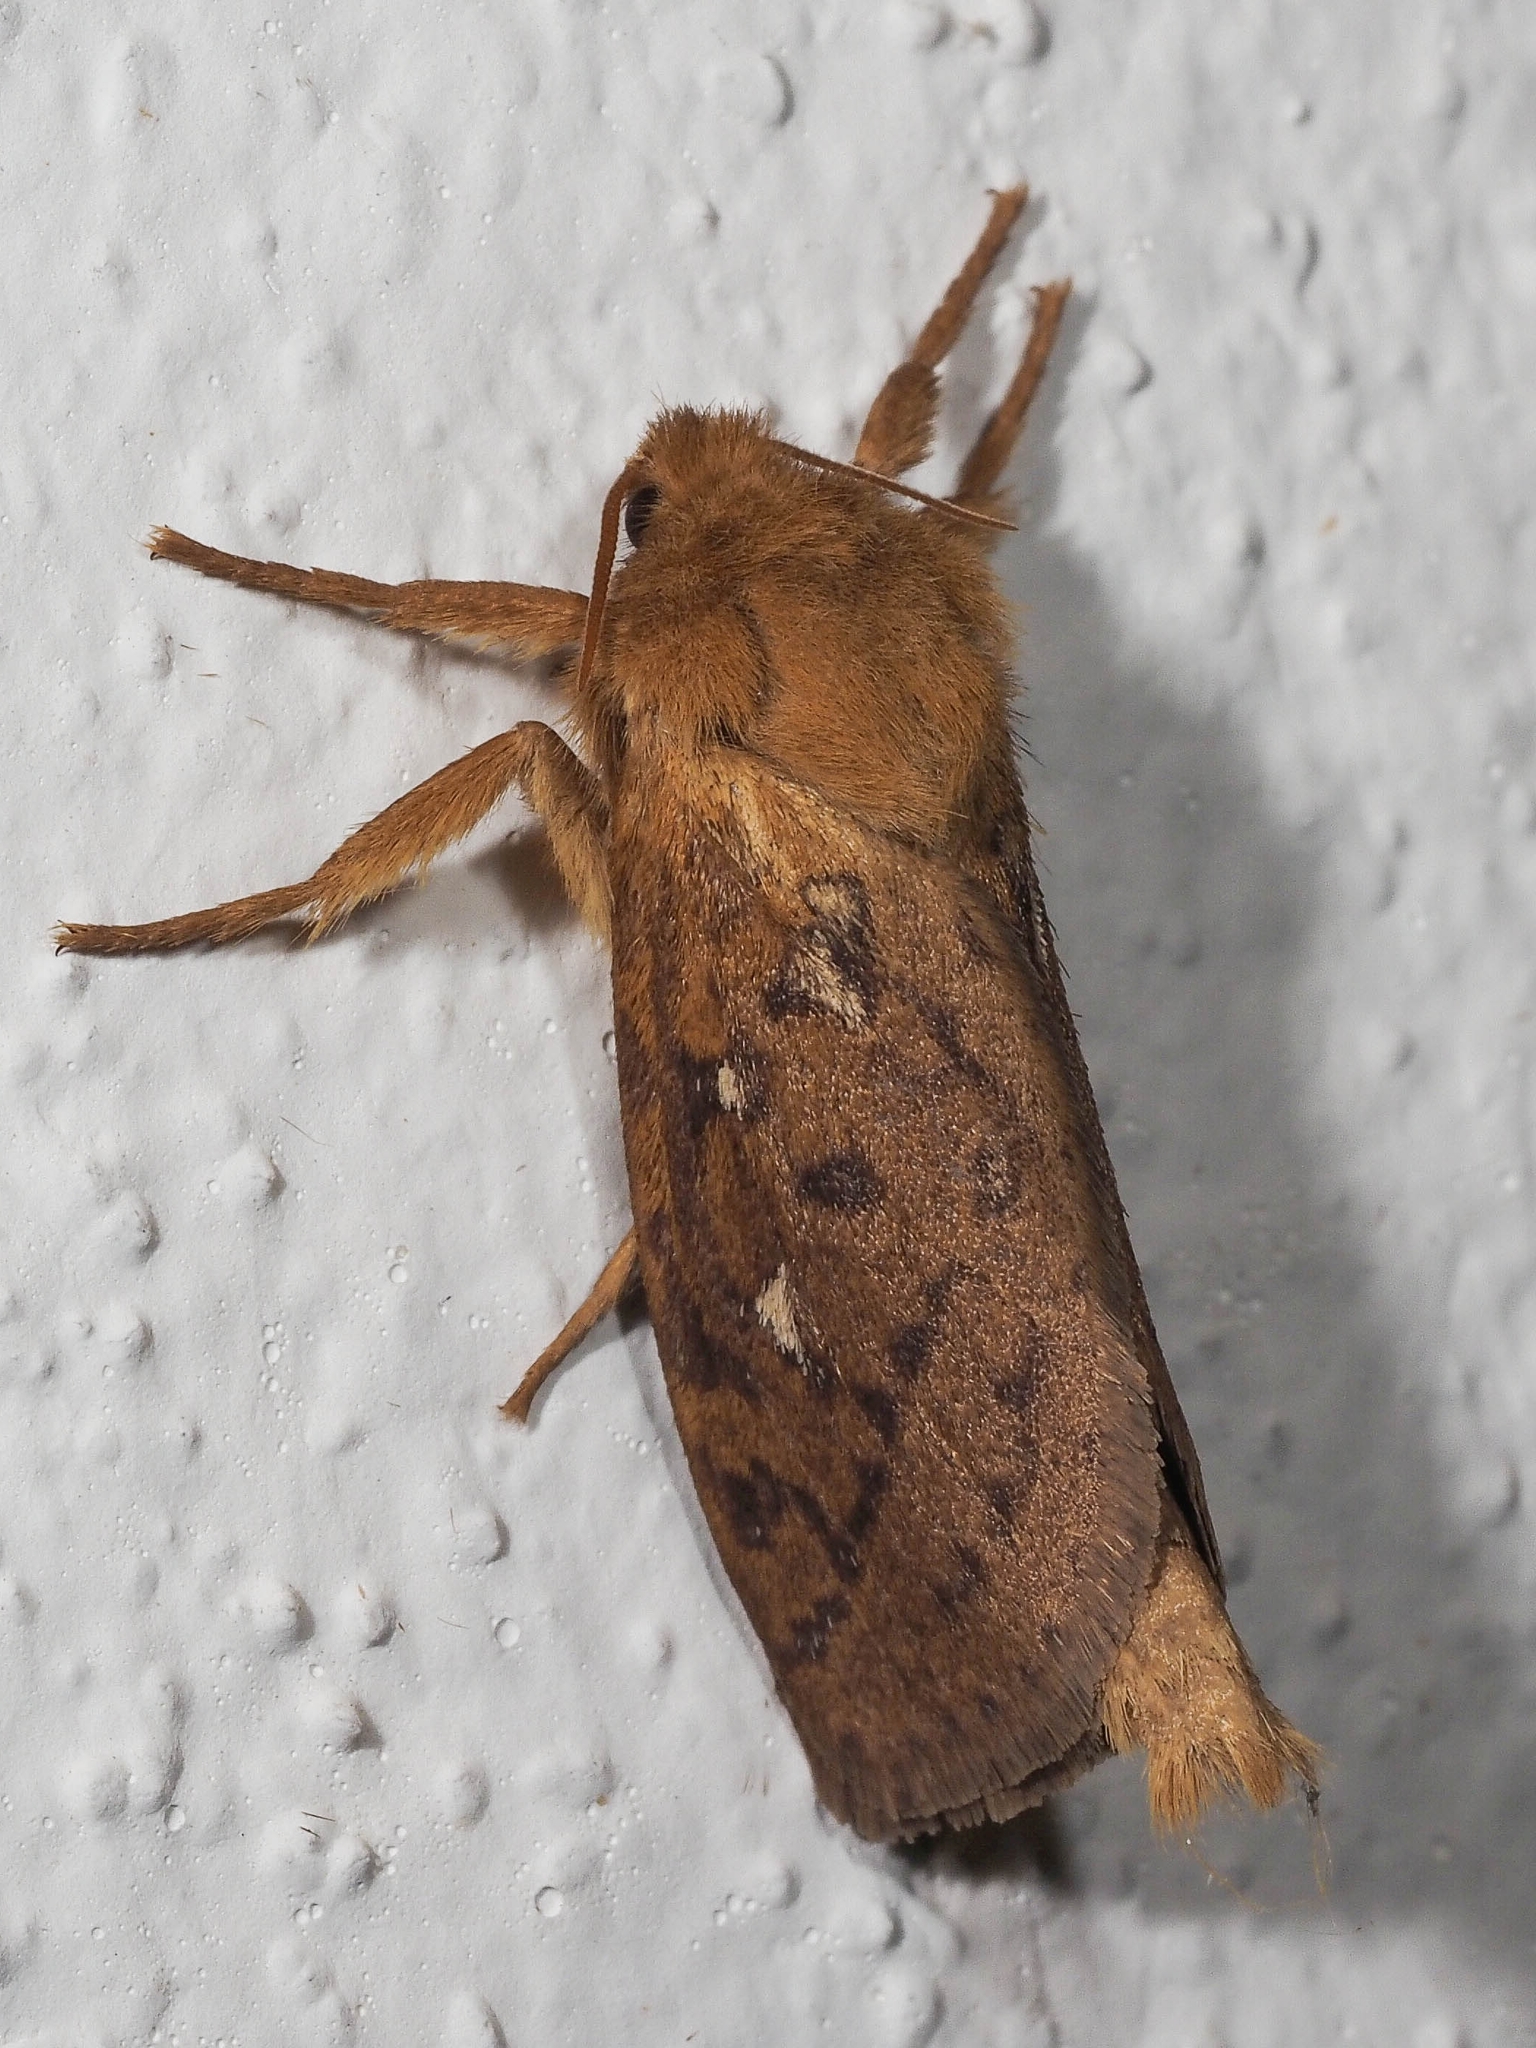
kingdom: Animalia
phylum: Arthropoda
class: Insecta
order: Lepidoptera
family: Hepialidae
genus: Pharmacis
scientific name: Pharmacis aemilianus
